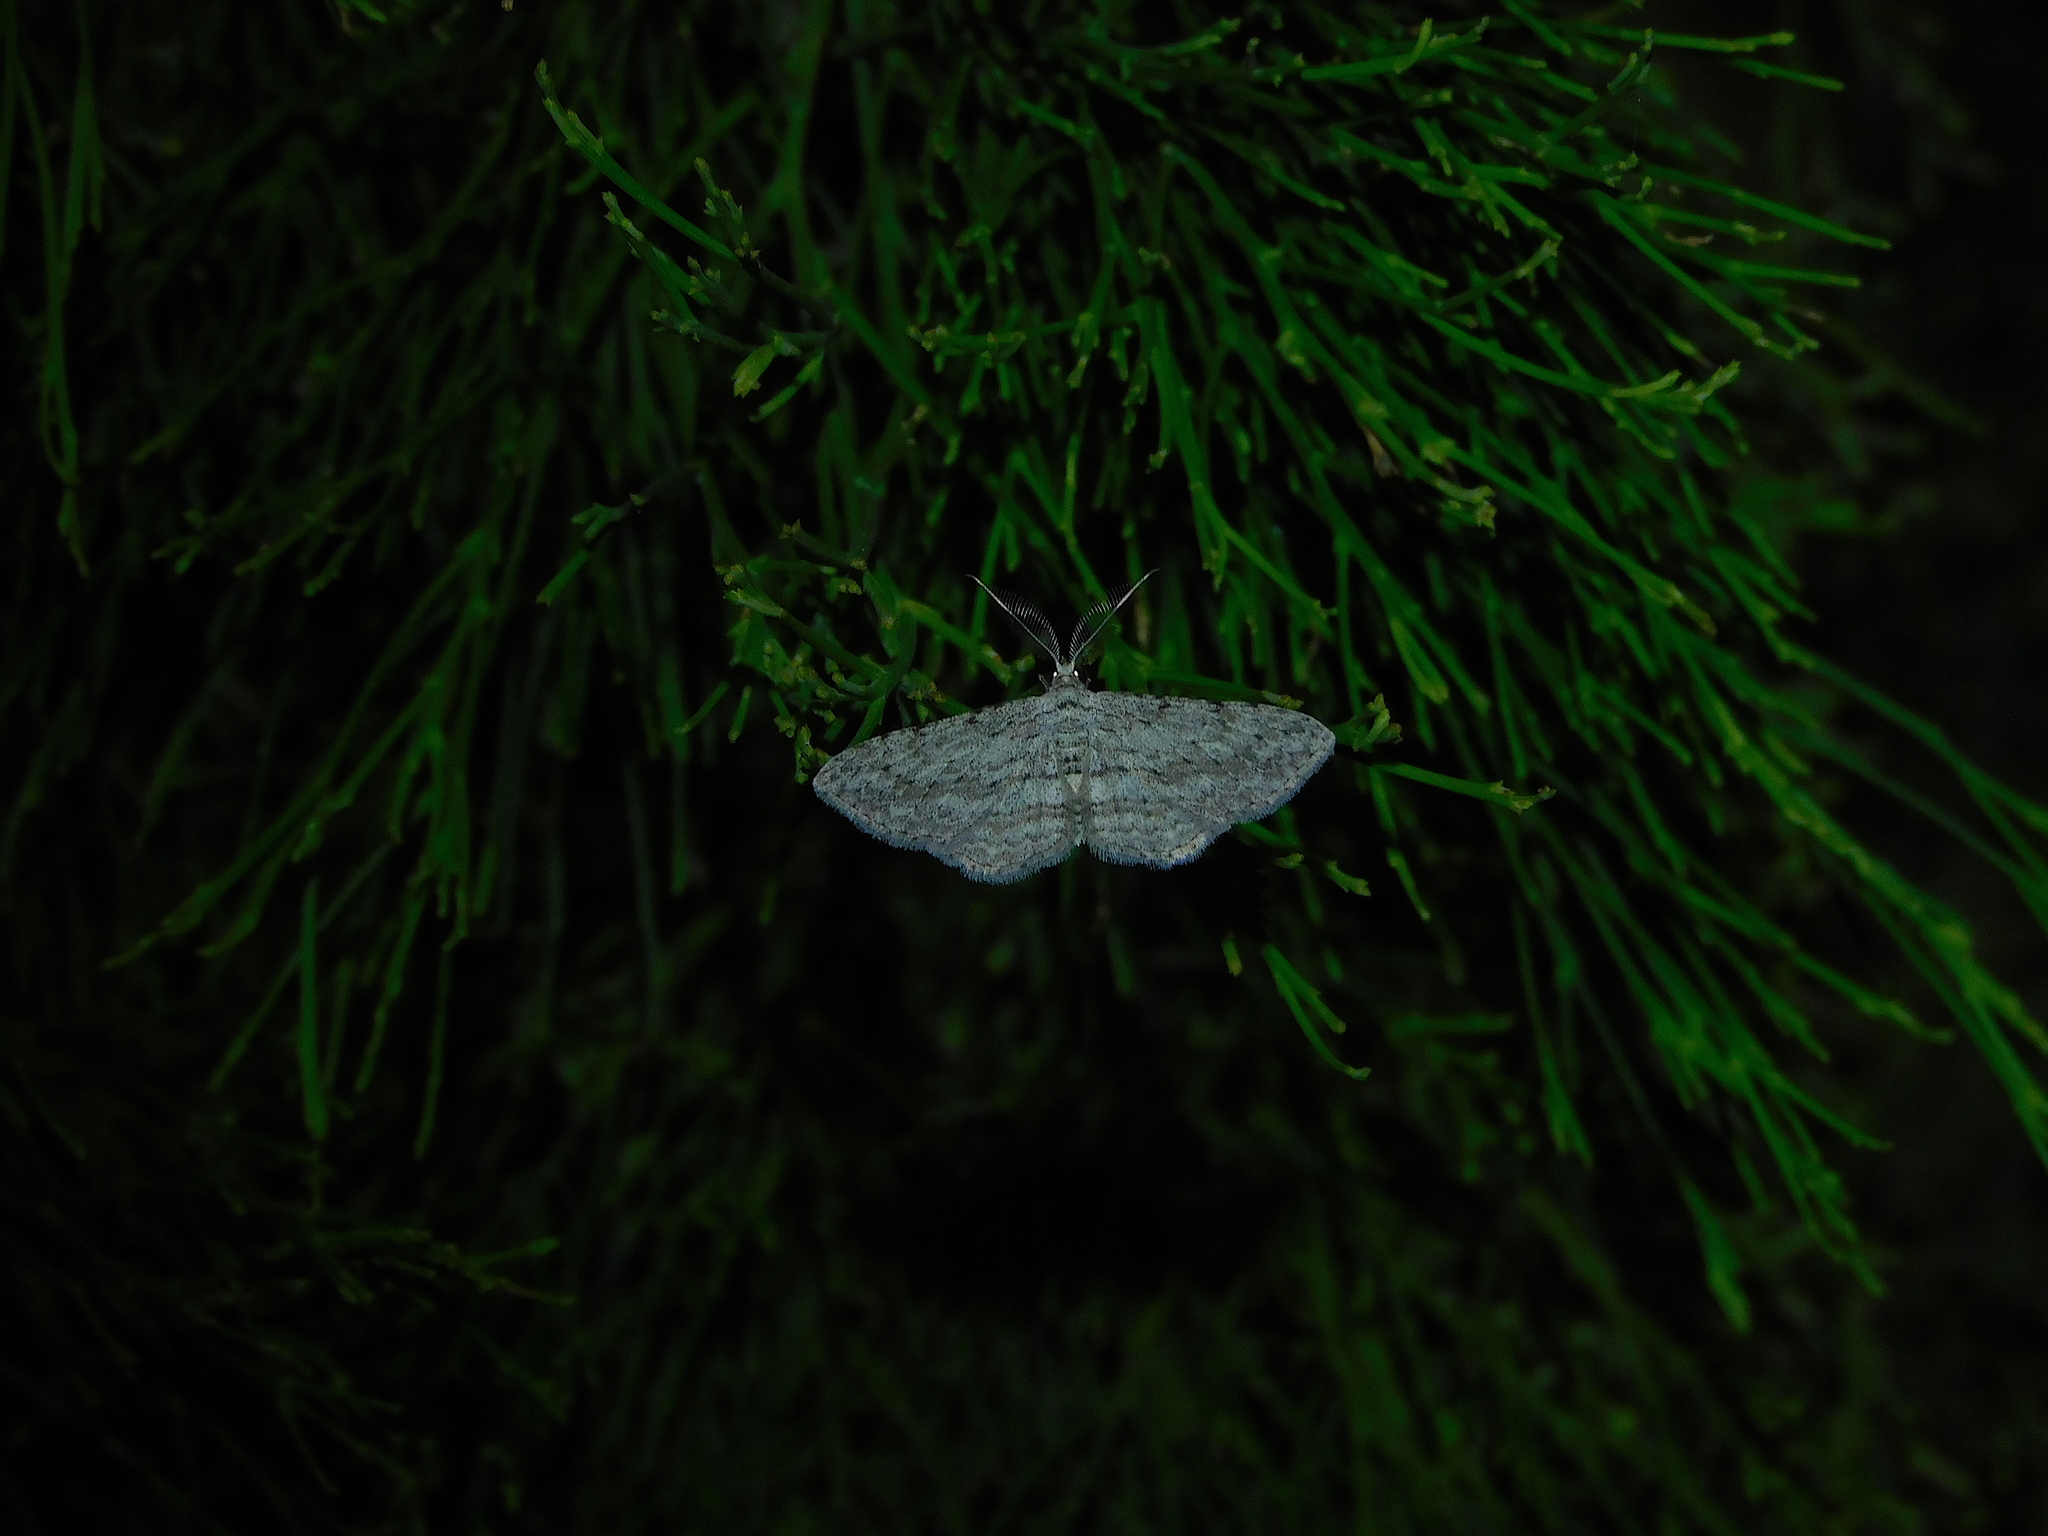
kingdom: Animalia
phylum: Arthropoda
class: Insecta
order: Lepidoptera
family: Geometridae
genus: Phelotis
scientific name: Phelotis cognata
